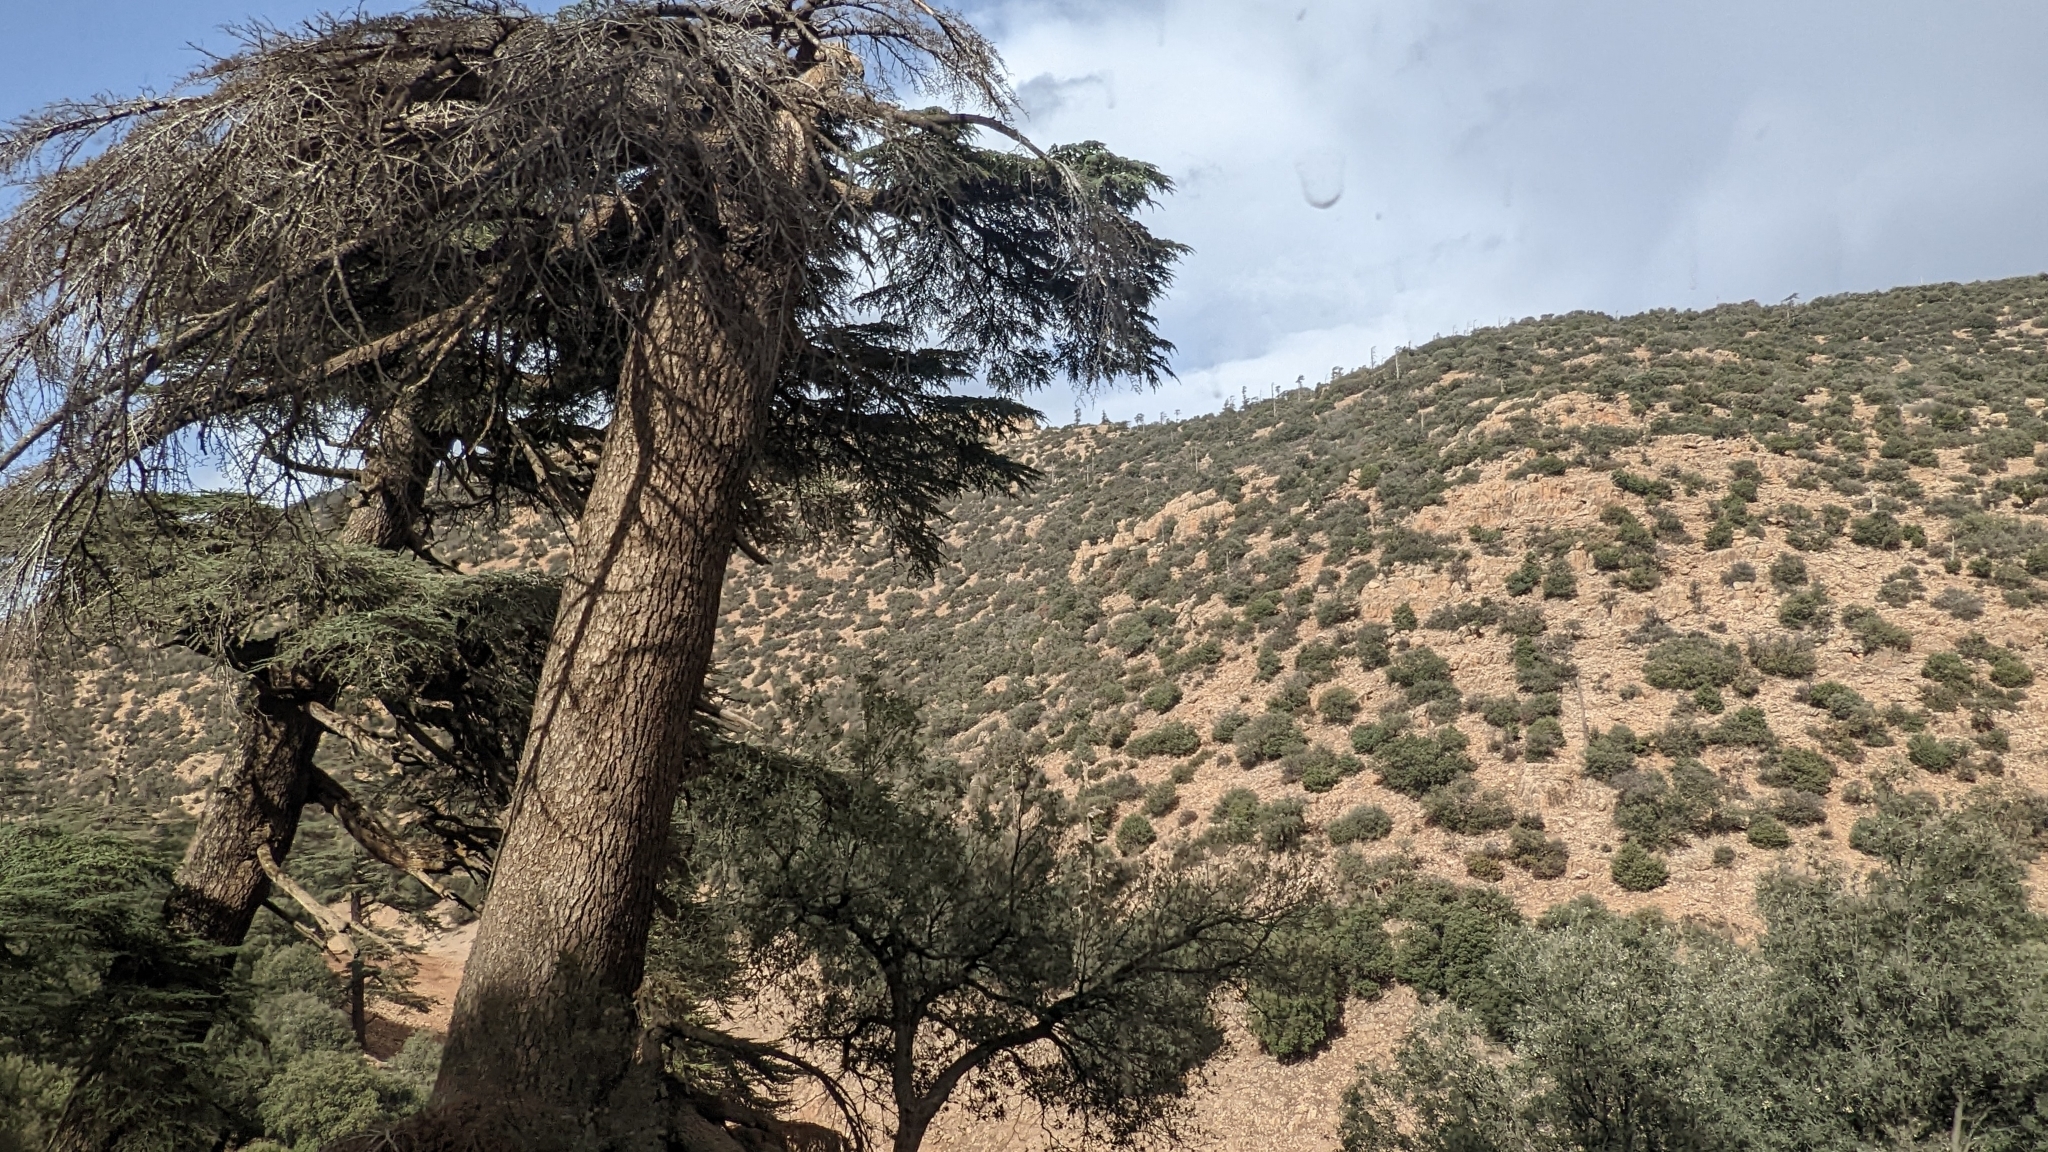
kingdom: Plantae
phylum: Tracheophyta
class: Pinopsida
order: Pinales
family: Pinaceae
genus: Cedrus
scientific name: Cedrus atlantica
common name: Atlas cedar
